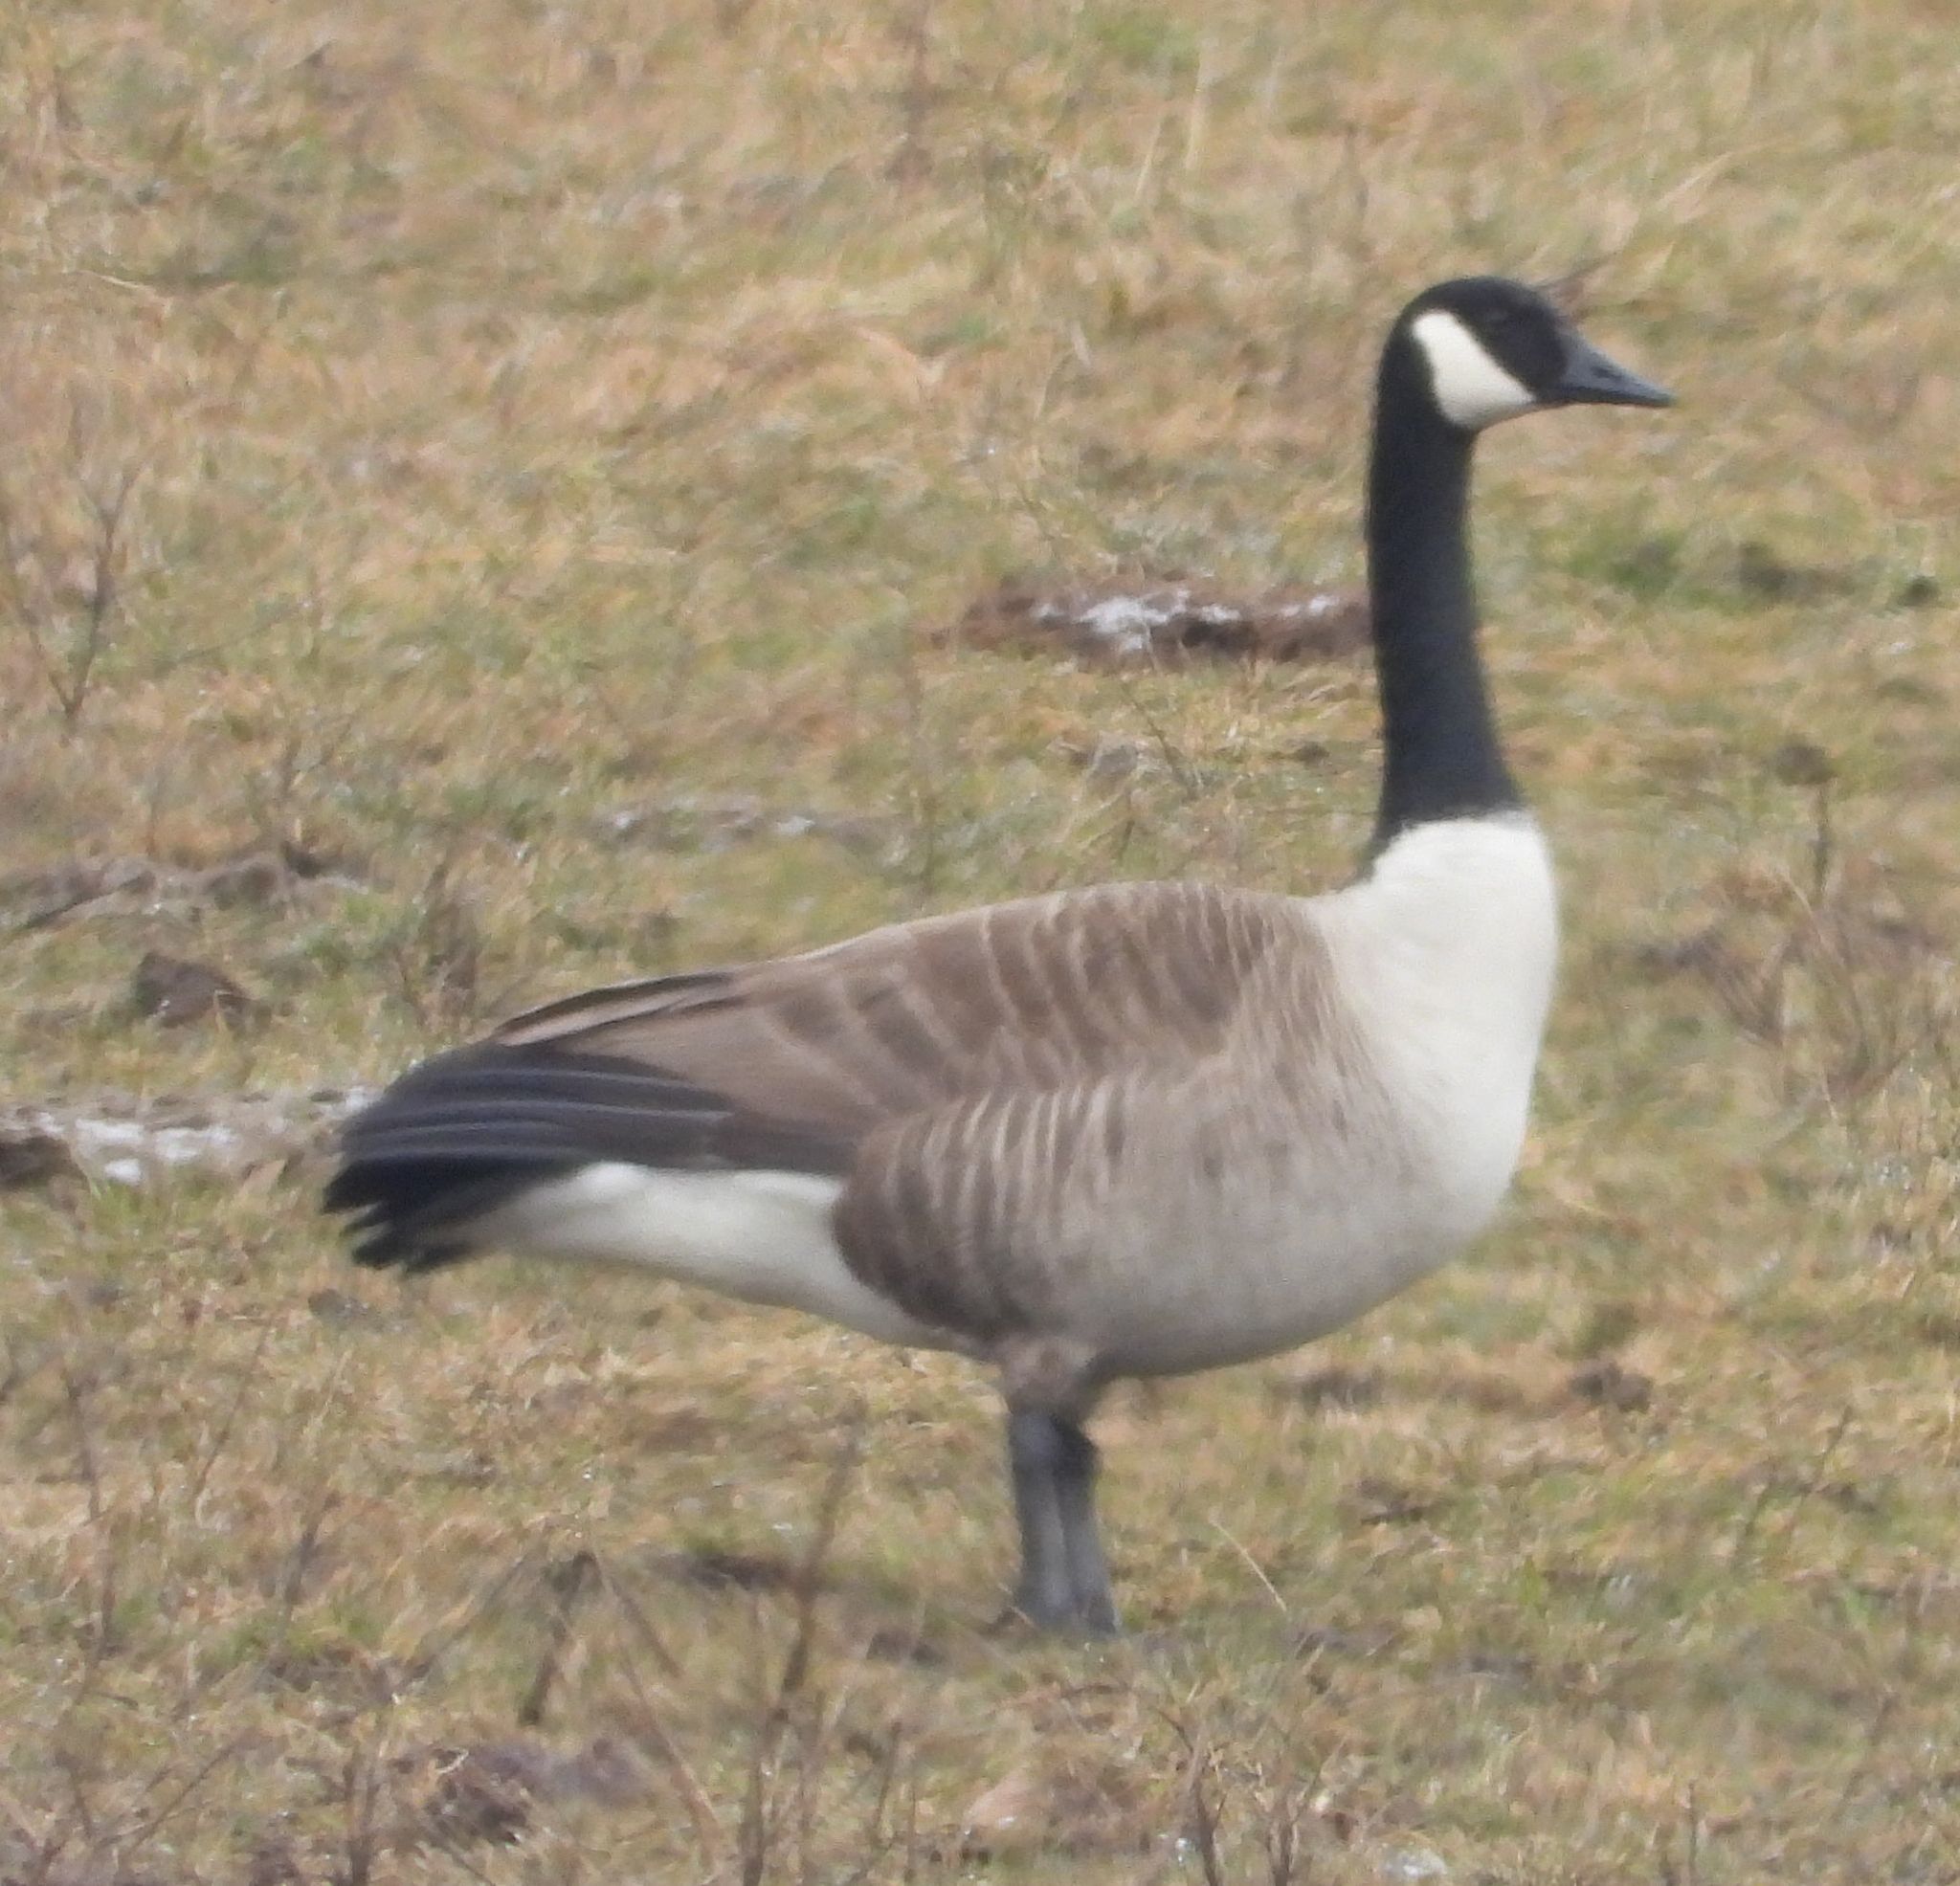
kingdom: Animalia
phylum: Chordata
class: Aves
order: Anseriformes
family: Anatidae
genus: Branta
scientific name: Branta canadensis
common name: Canada goose
